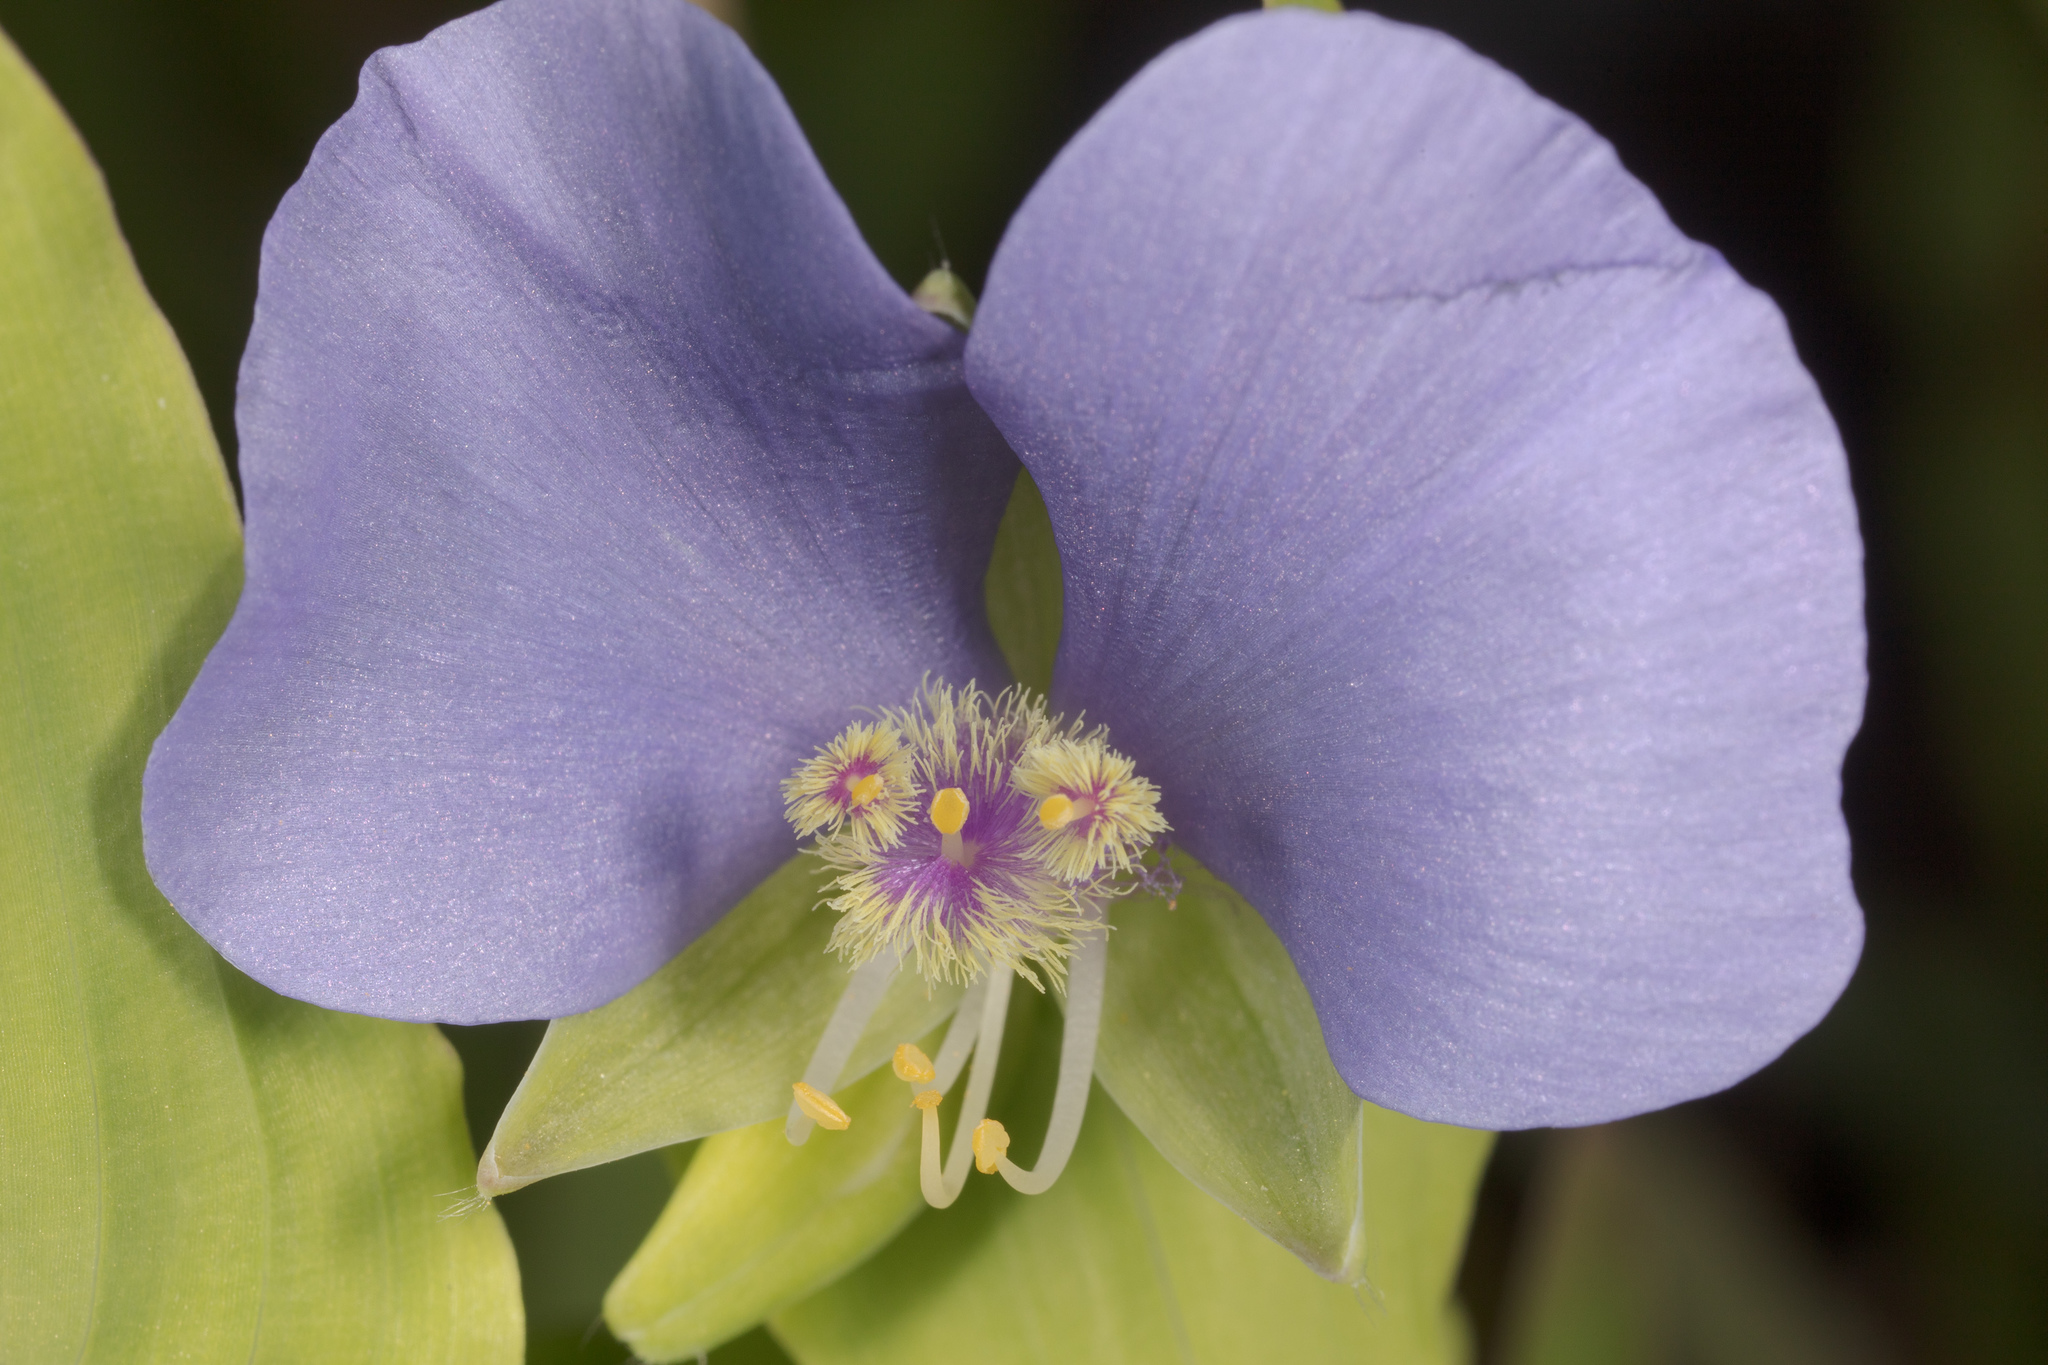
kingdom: Plantae
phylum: Tracheophyta
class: Liliopsida
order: Commelinales
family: Commelinaceae
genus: Tinantia
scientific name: Tinantia anomala
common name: False dayflower
